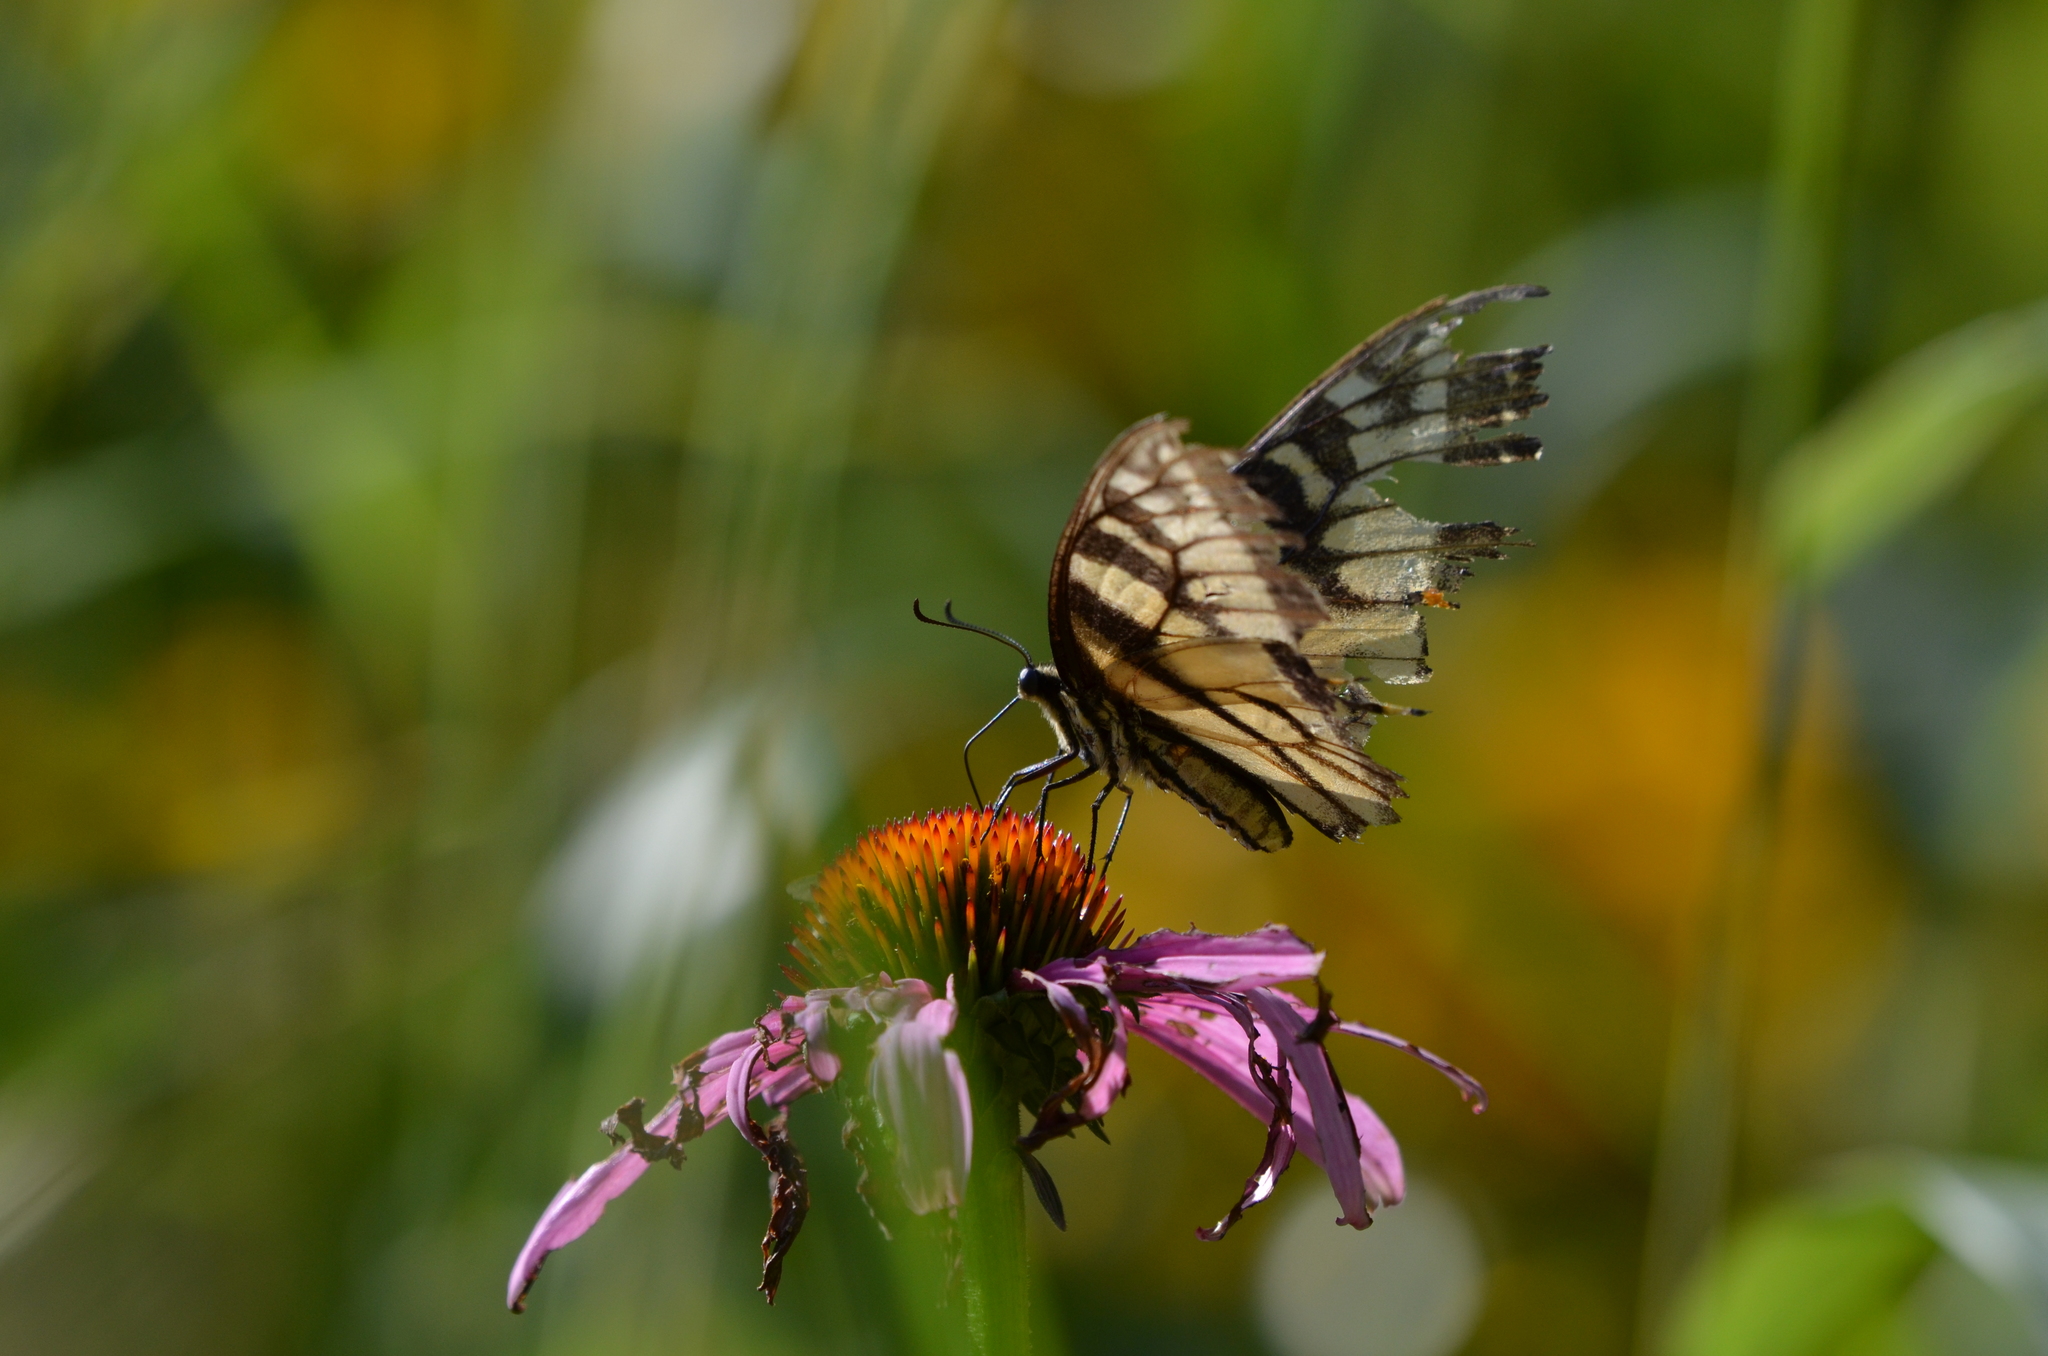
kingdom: Animalia
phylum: Arthropoda
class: Insecta
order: Lepidoptera
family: Papilionidae
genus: Papilio
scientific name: Papilio glaucus
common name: Tiger swallowtail
